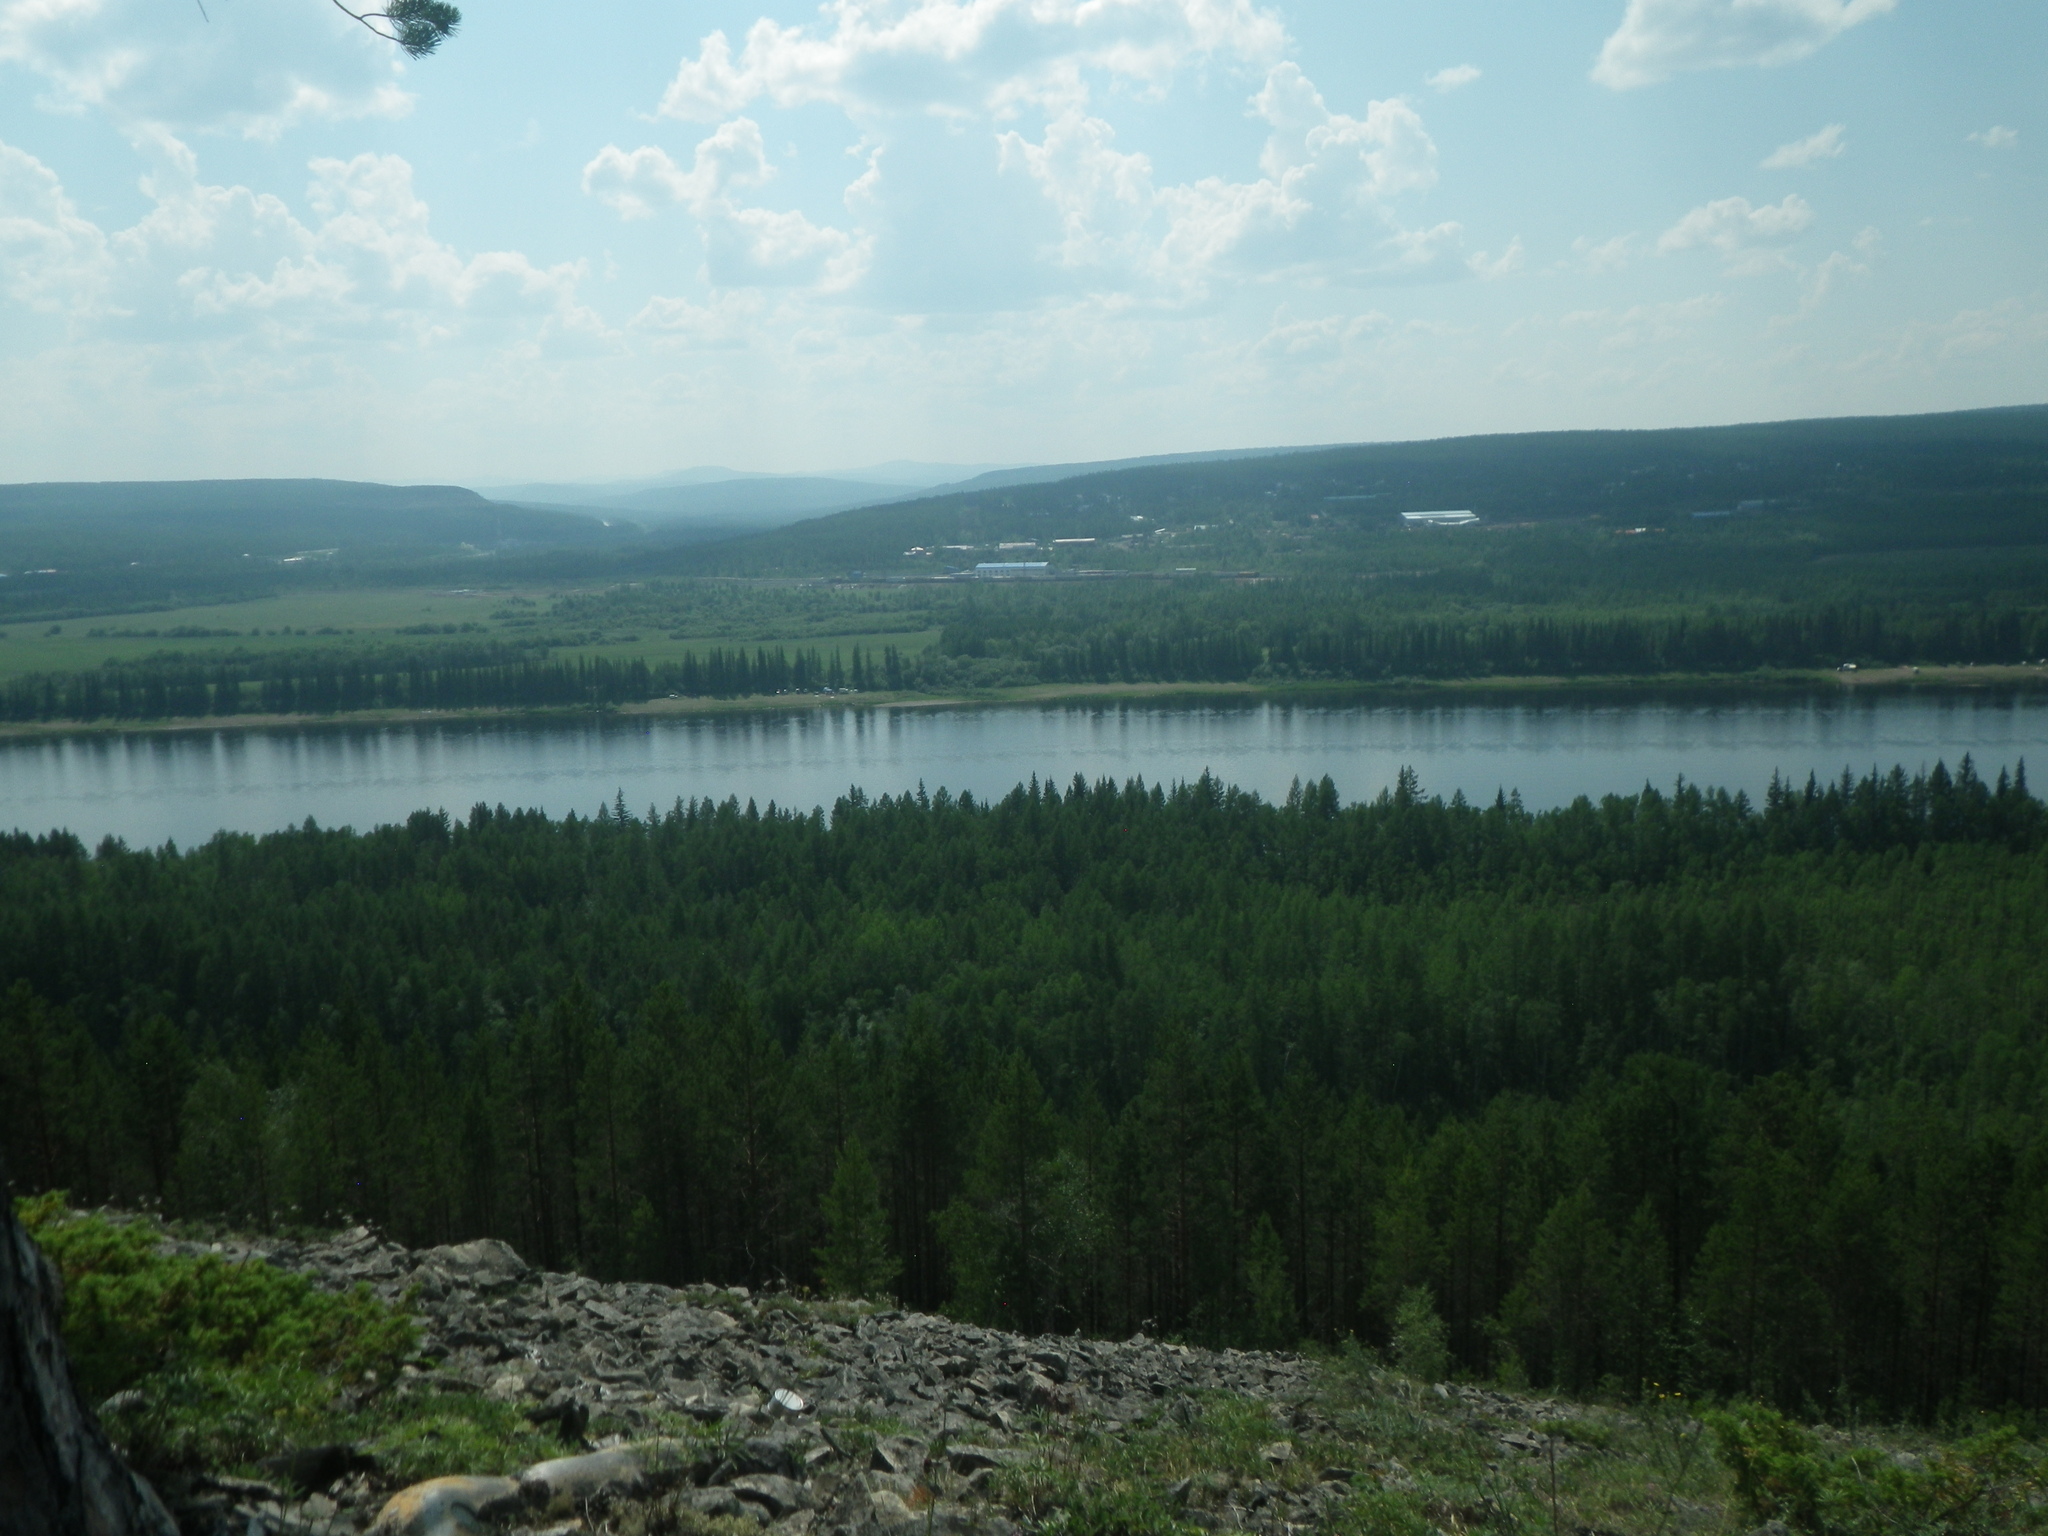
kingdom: Plantae
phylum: Tracheophyta
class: Pinopsida
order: Pinales
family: Pinaceae
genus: Pinus
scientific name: Pinus sylvestris
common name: Scots pine
